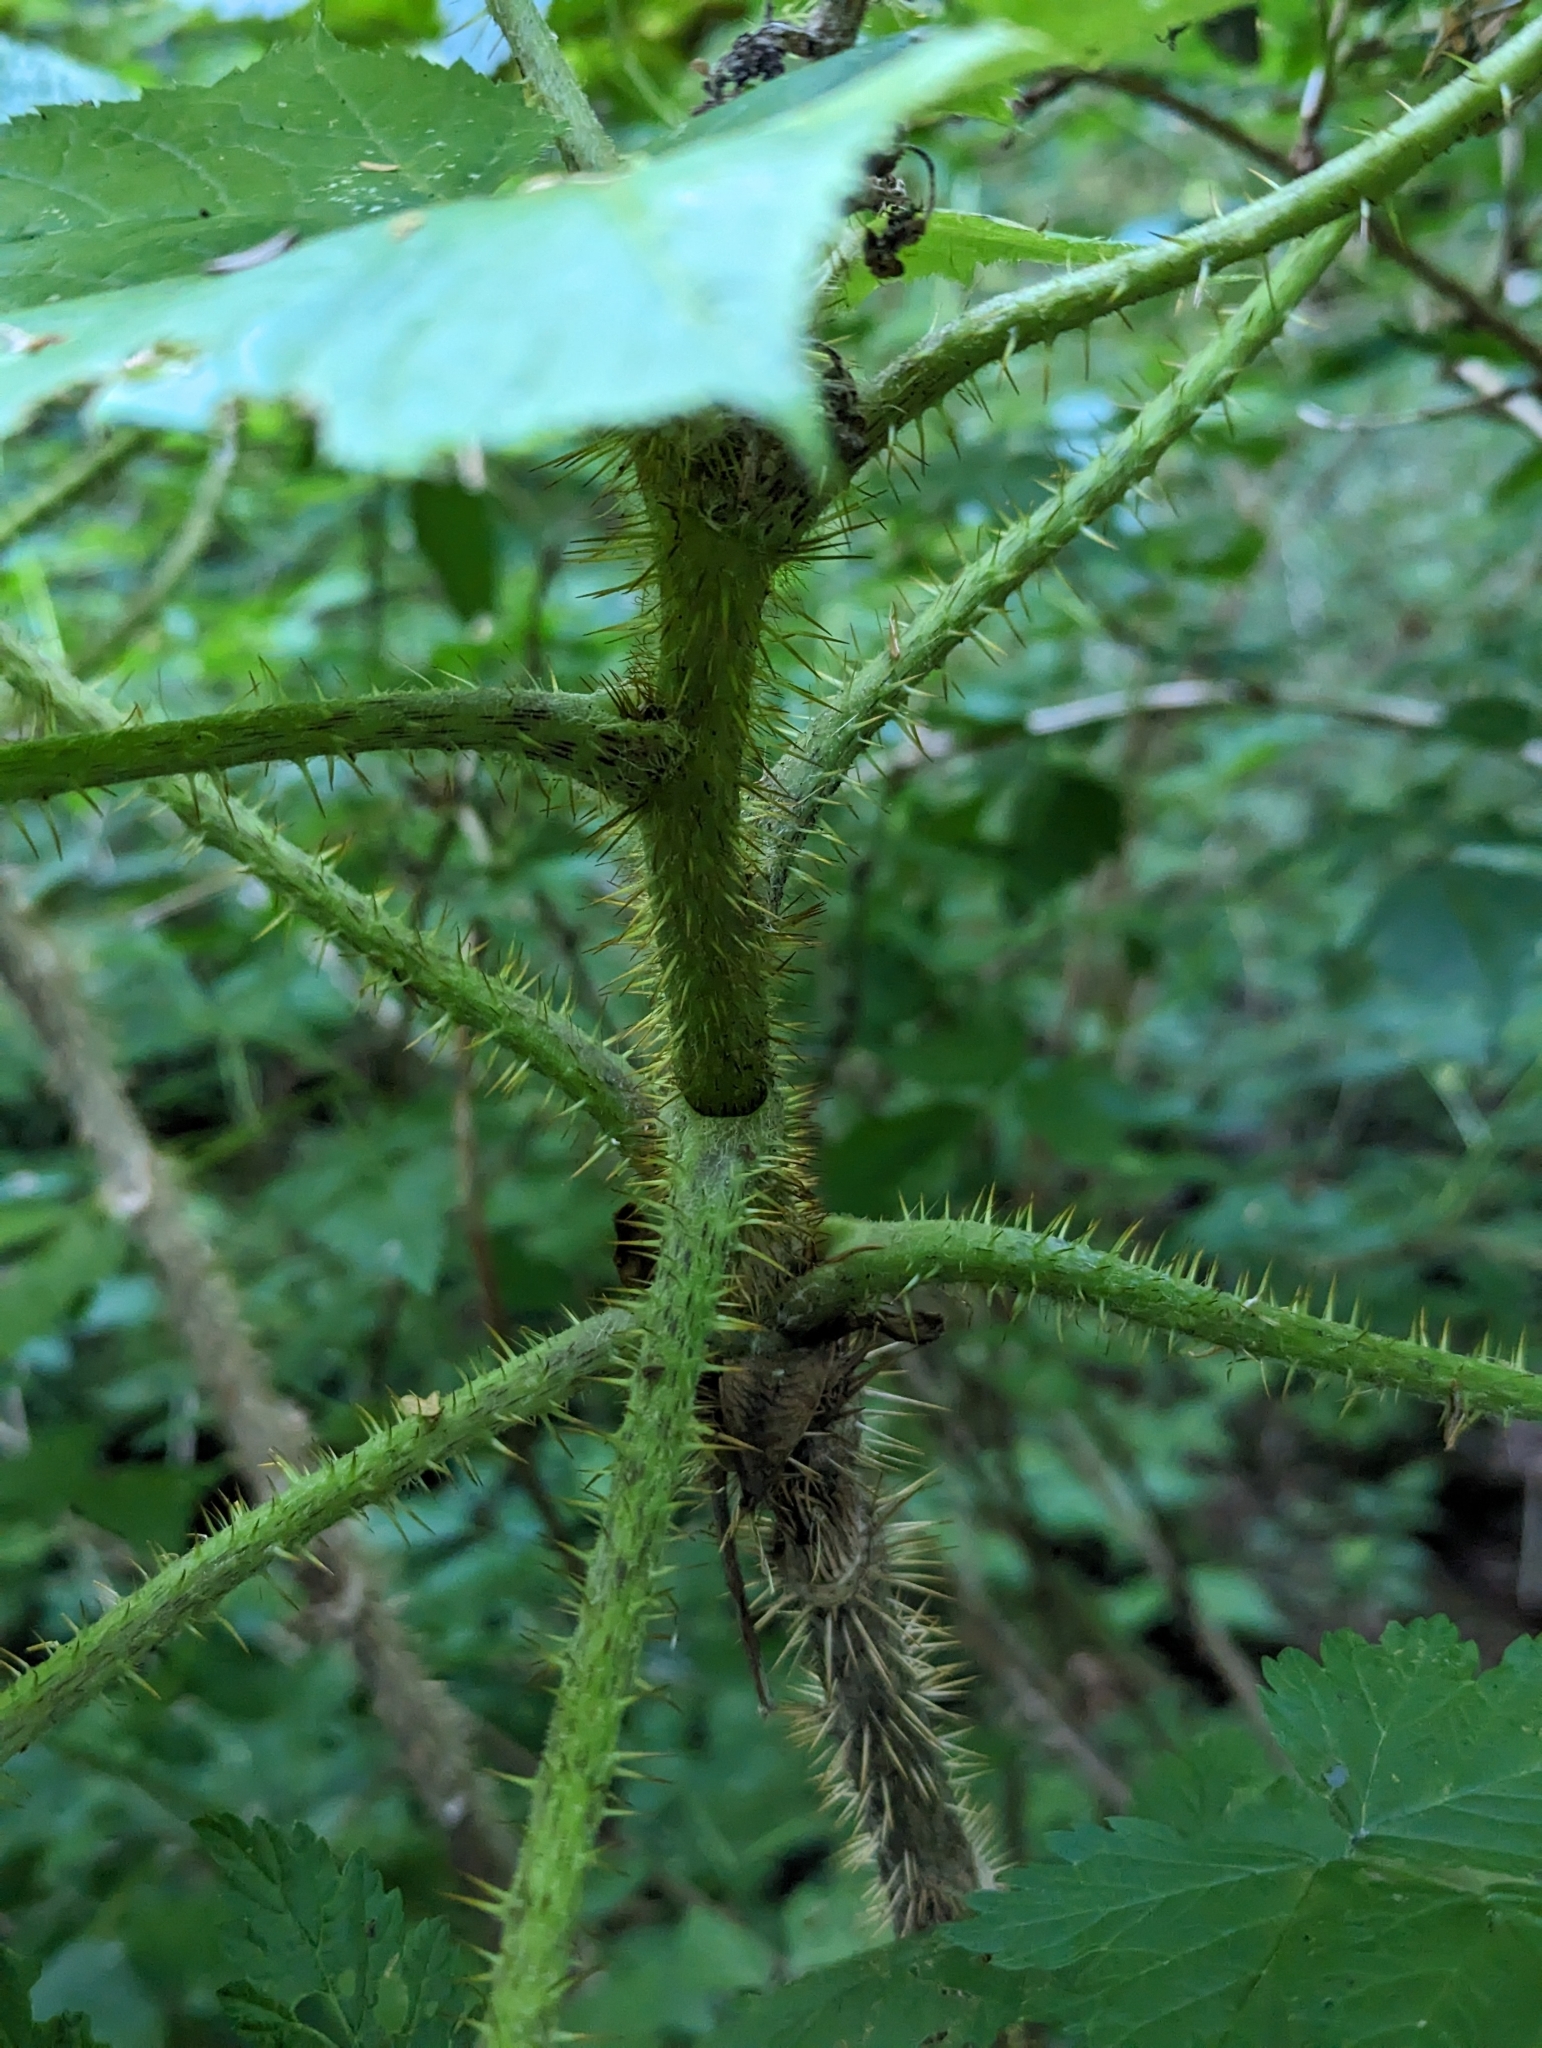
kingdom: Plantae
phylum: Tracheophyta
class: Magnoliopsida
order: Apiales
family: Araliaceae
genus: Oplopanax
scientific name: Oplopanax horridus
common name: Devil's walking-stick
